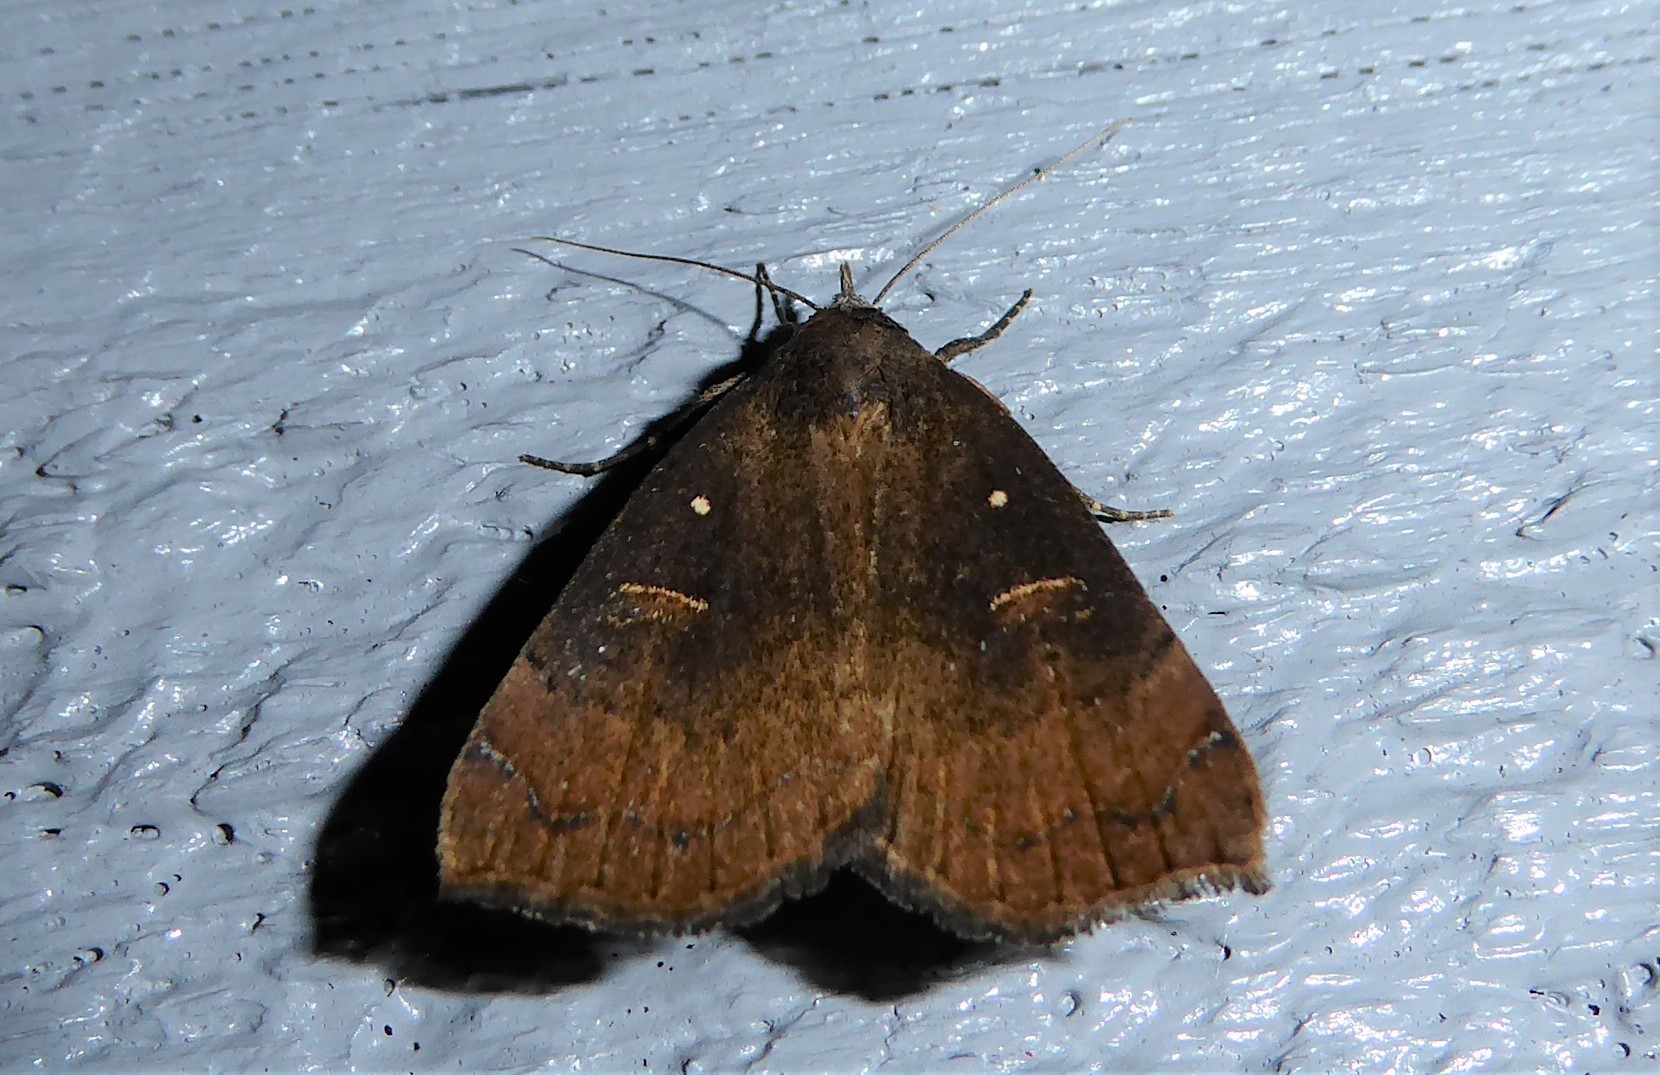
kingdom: Animalia
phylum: Arthropoda
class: Insecta
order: Lepidoptera
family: Erebidae
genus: Rhapsa
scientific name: Rhapsa scotosialis
